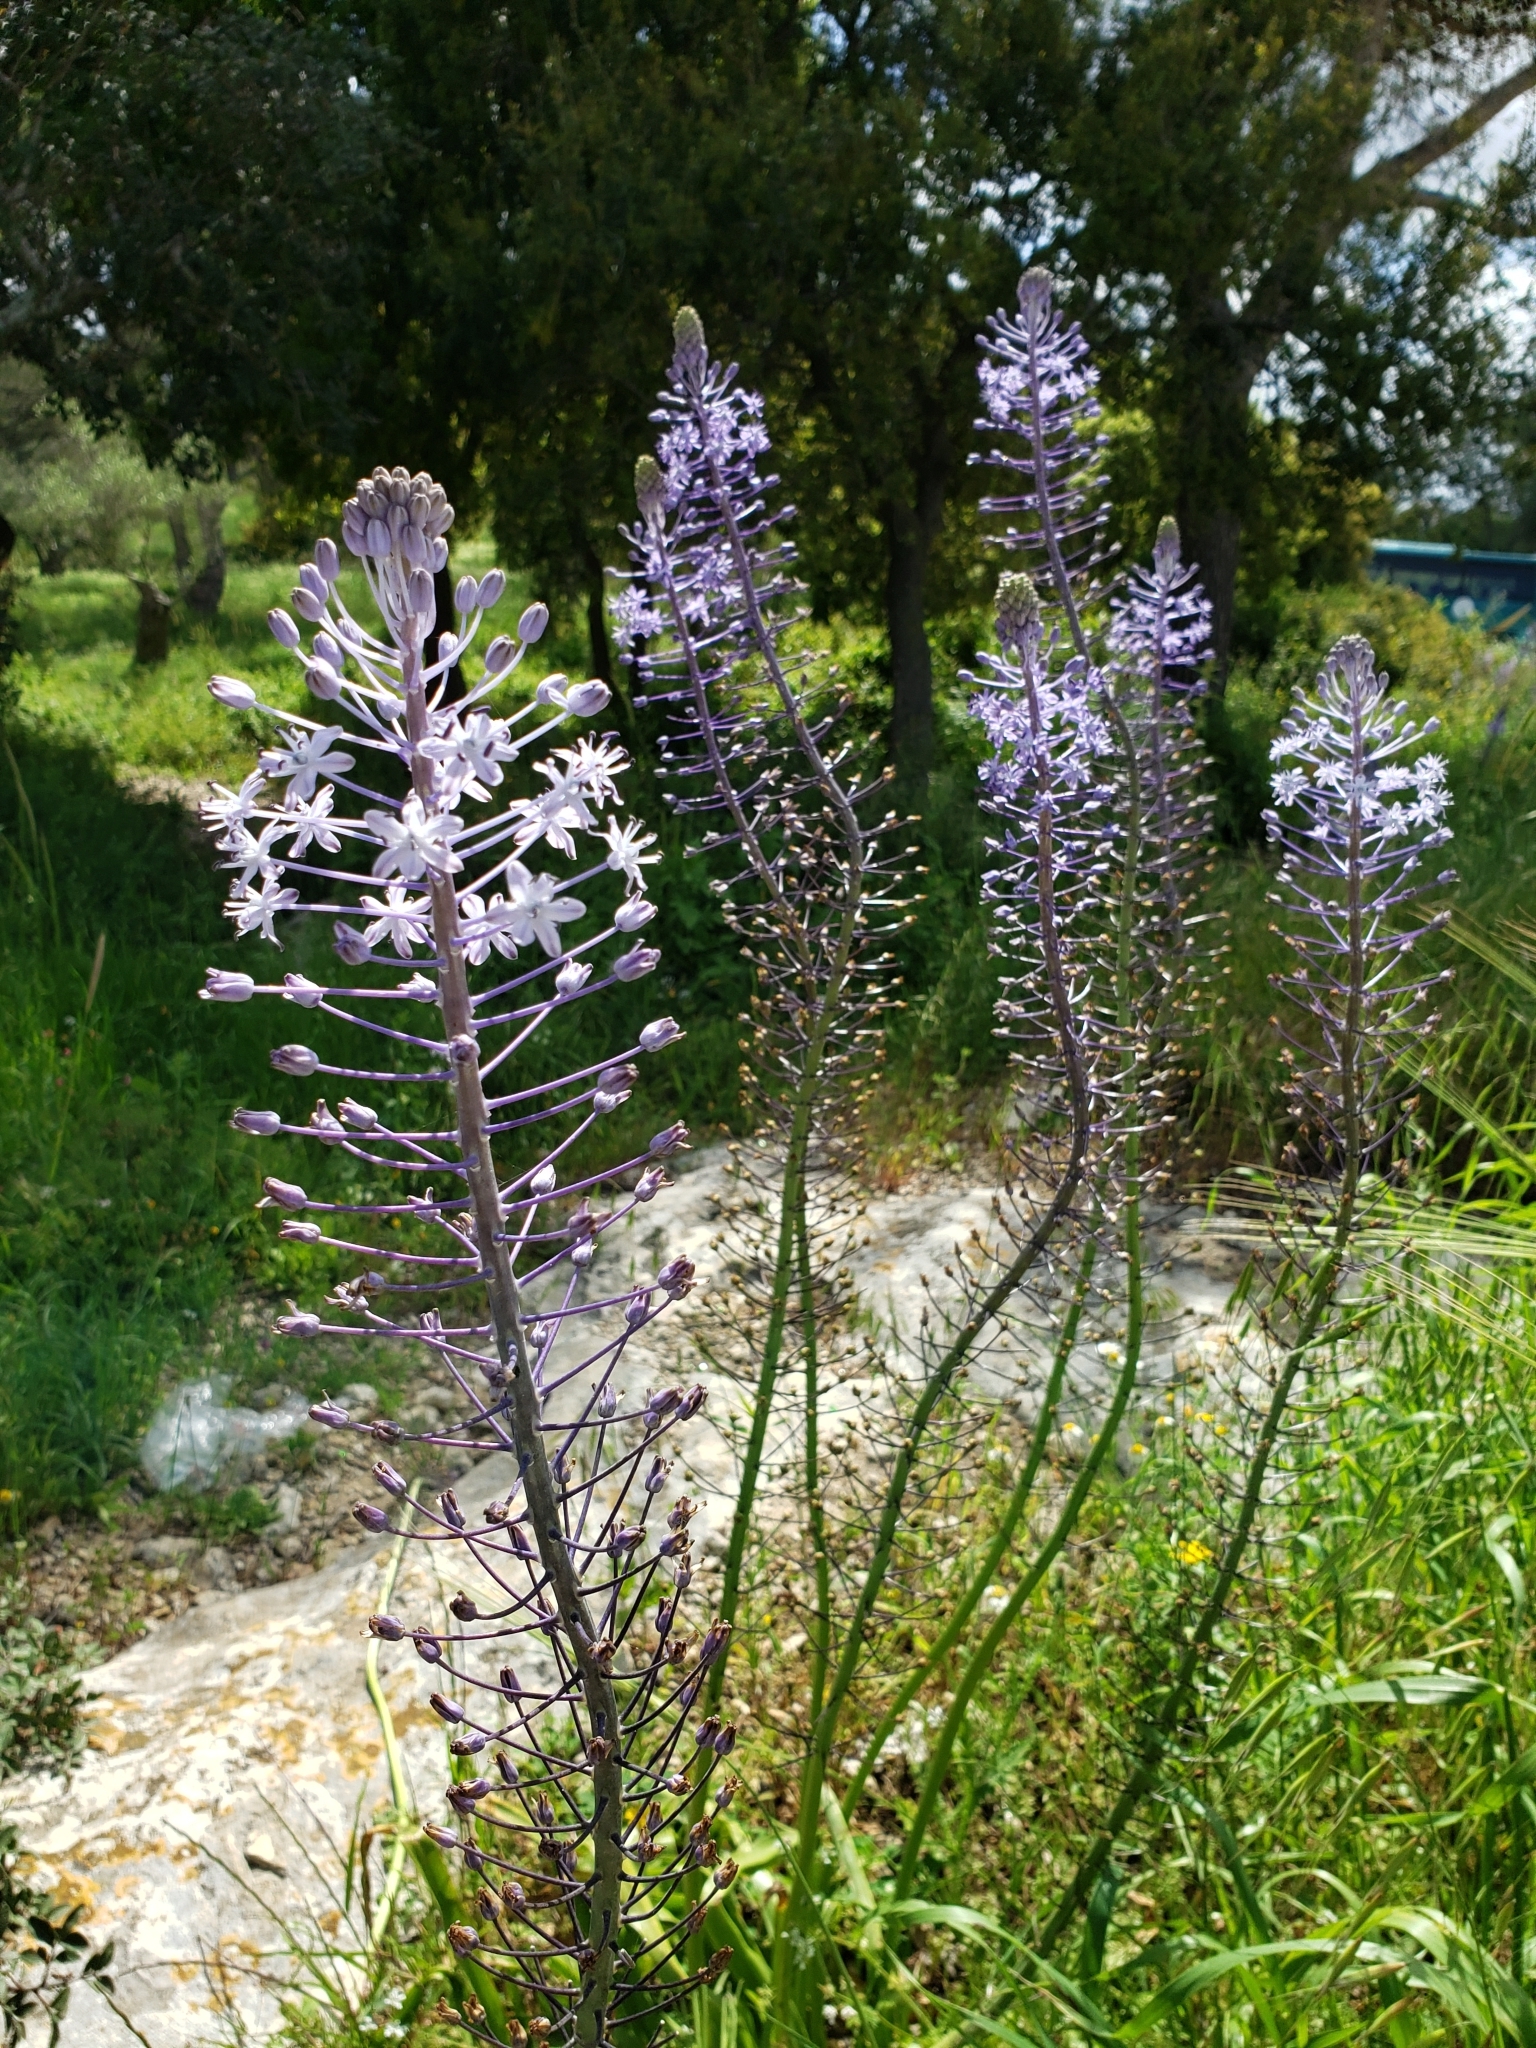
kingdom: Plantae
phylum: Tracheophyta
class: Liliopsida
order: Asparagales
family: Asparagaceae
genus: Scilla
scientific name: Scilla hyacinthoides
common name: Scilla
